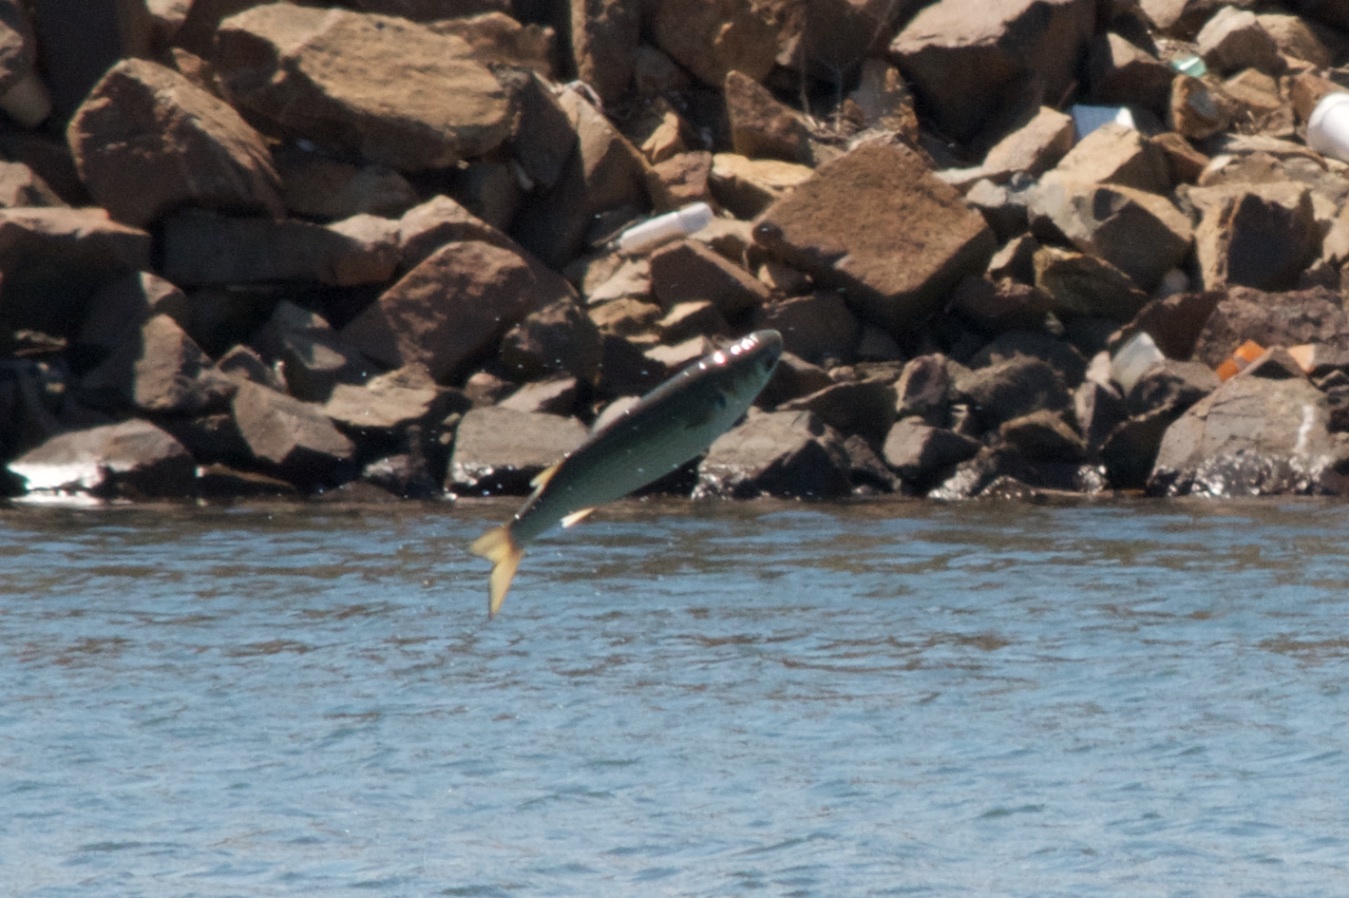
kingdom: Animalia
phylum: Chordata
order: Mugiliformes
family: Mugilidae
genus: Mugil
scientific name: Mugil cephalus
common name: Grey mullet
